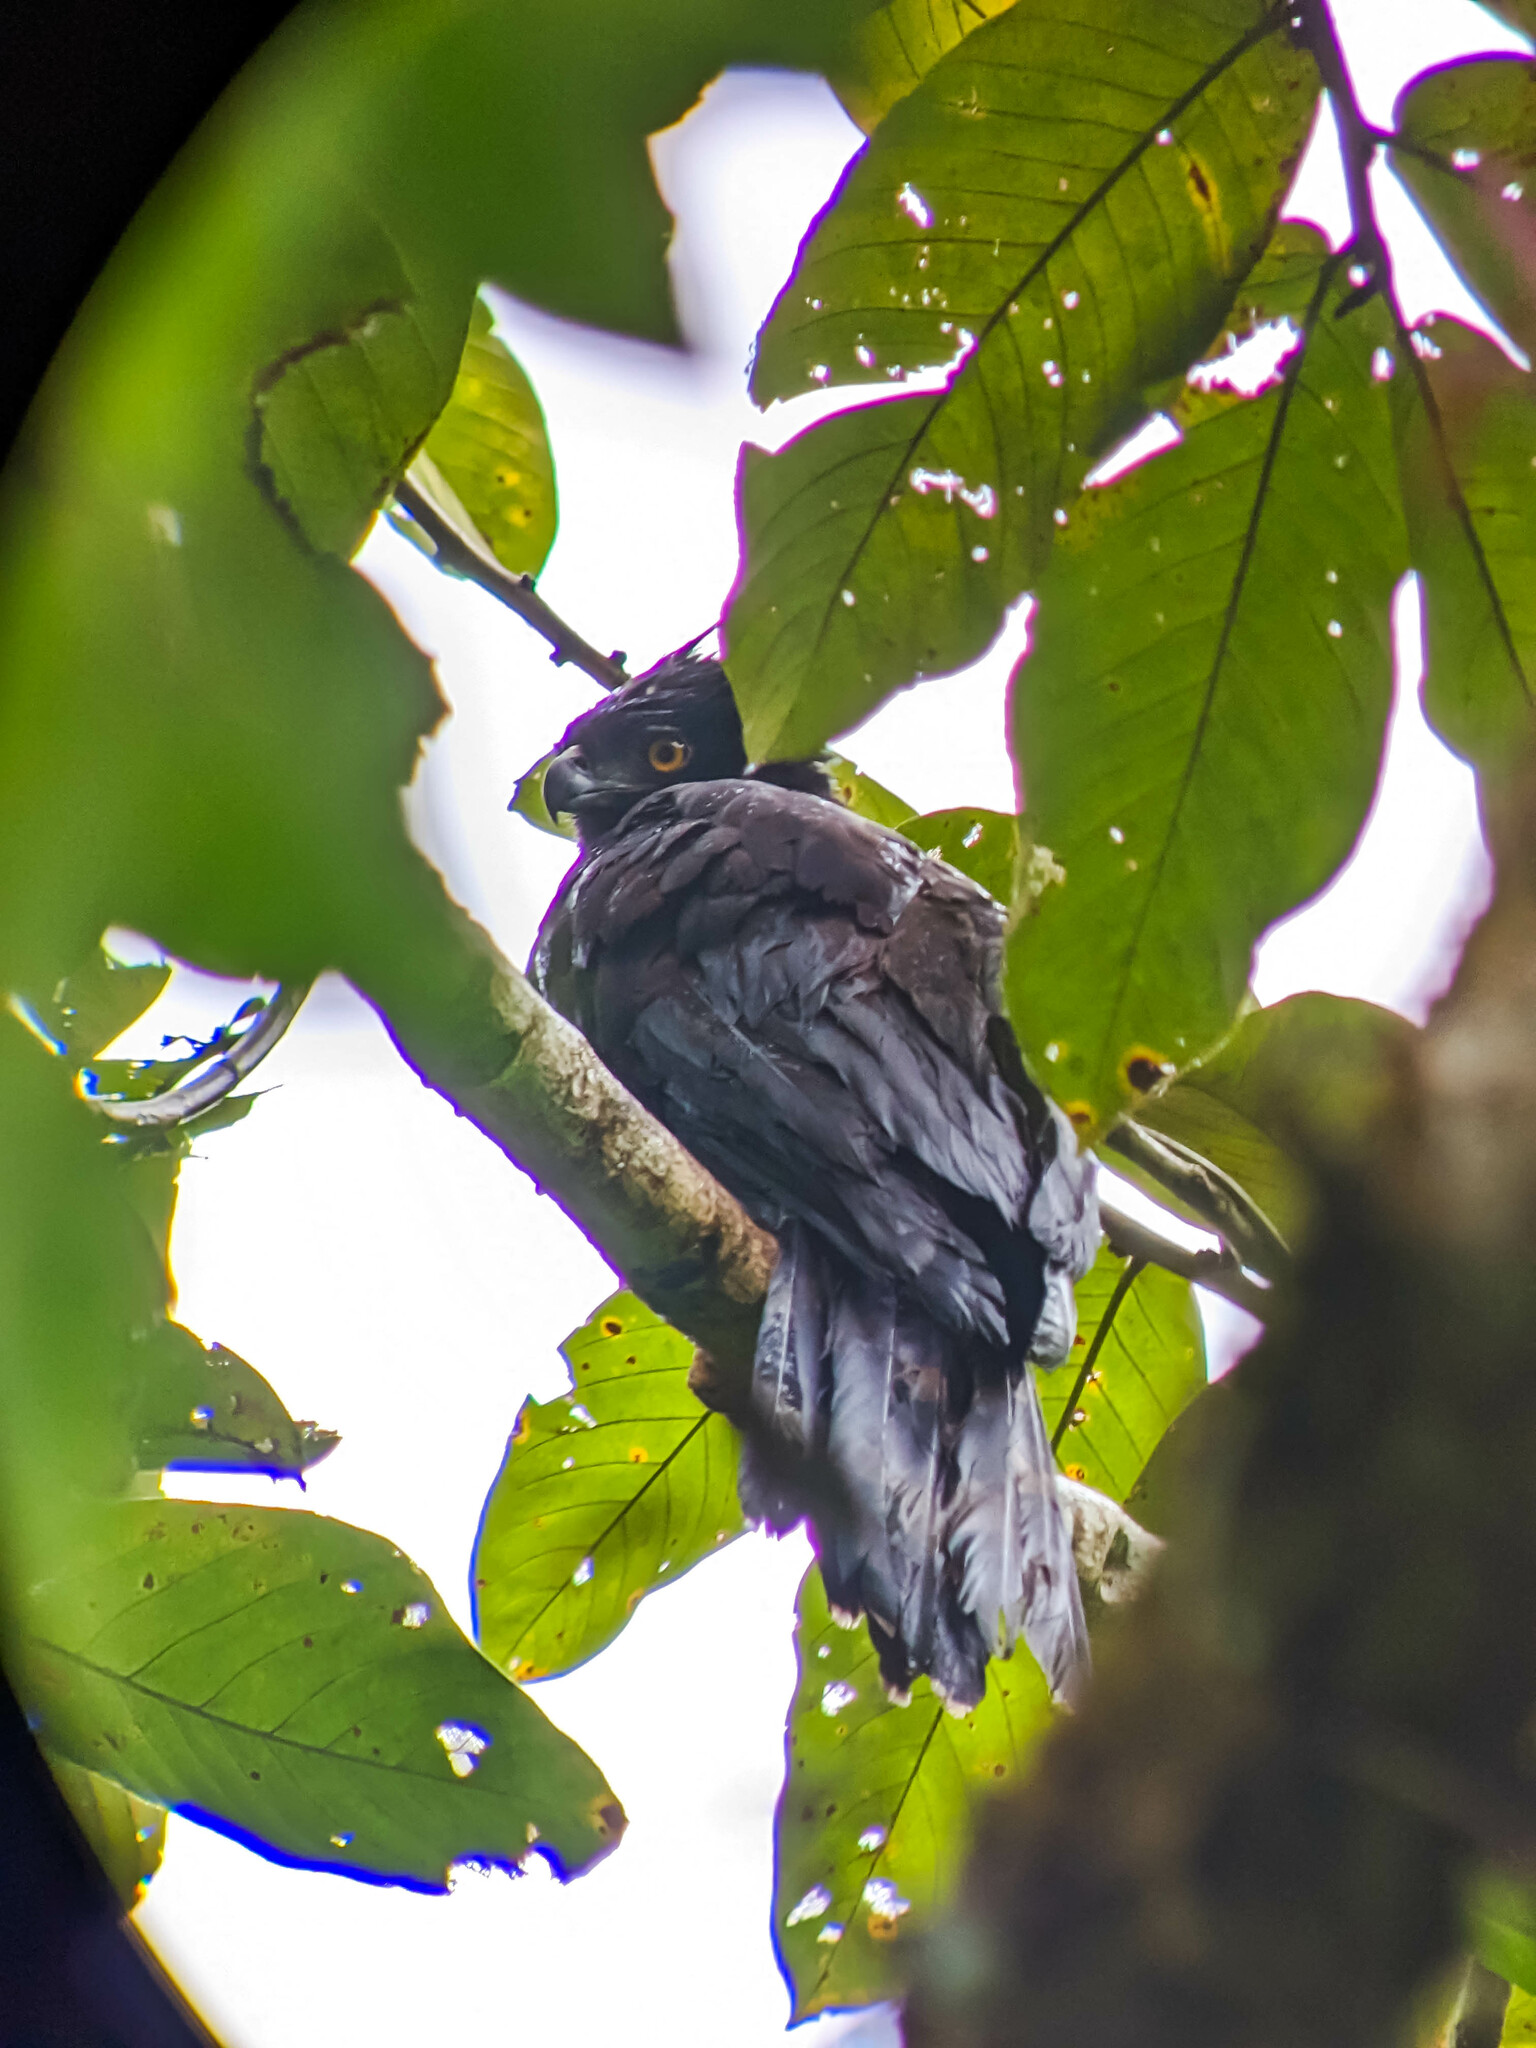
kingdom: Animalia
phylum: Chordata
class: Aves
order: Accipitriformes
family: Accipitridae
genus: Spizaetus
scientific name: Spizaetus tyrannus
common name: Black hawk-eagle
